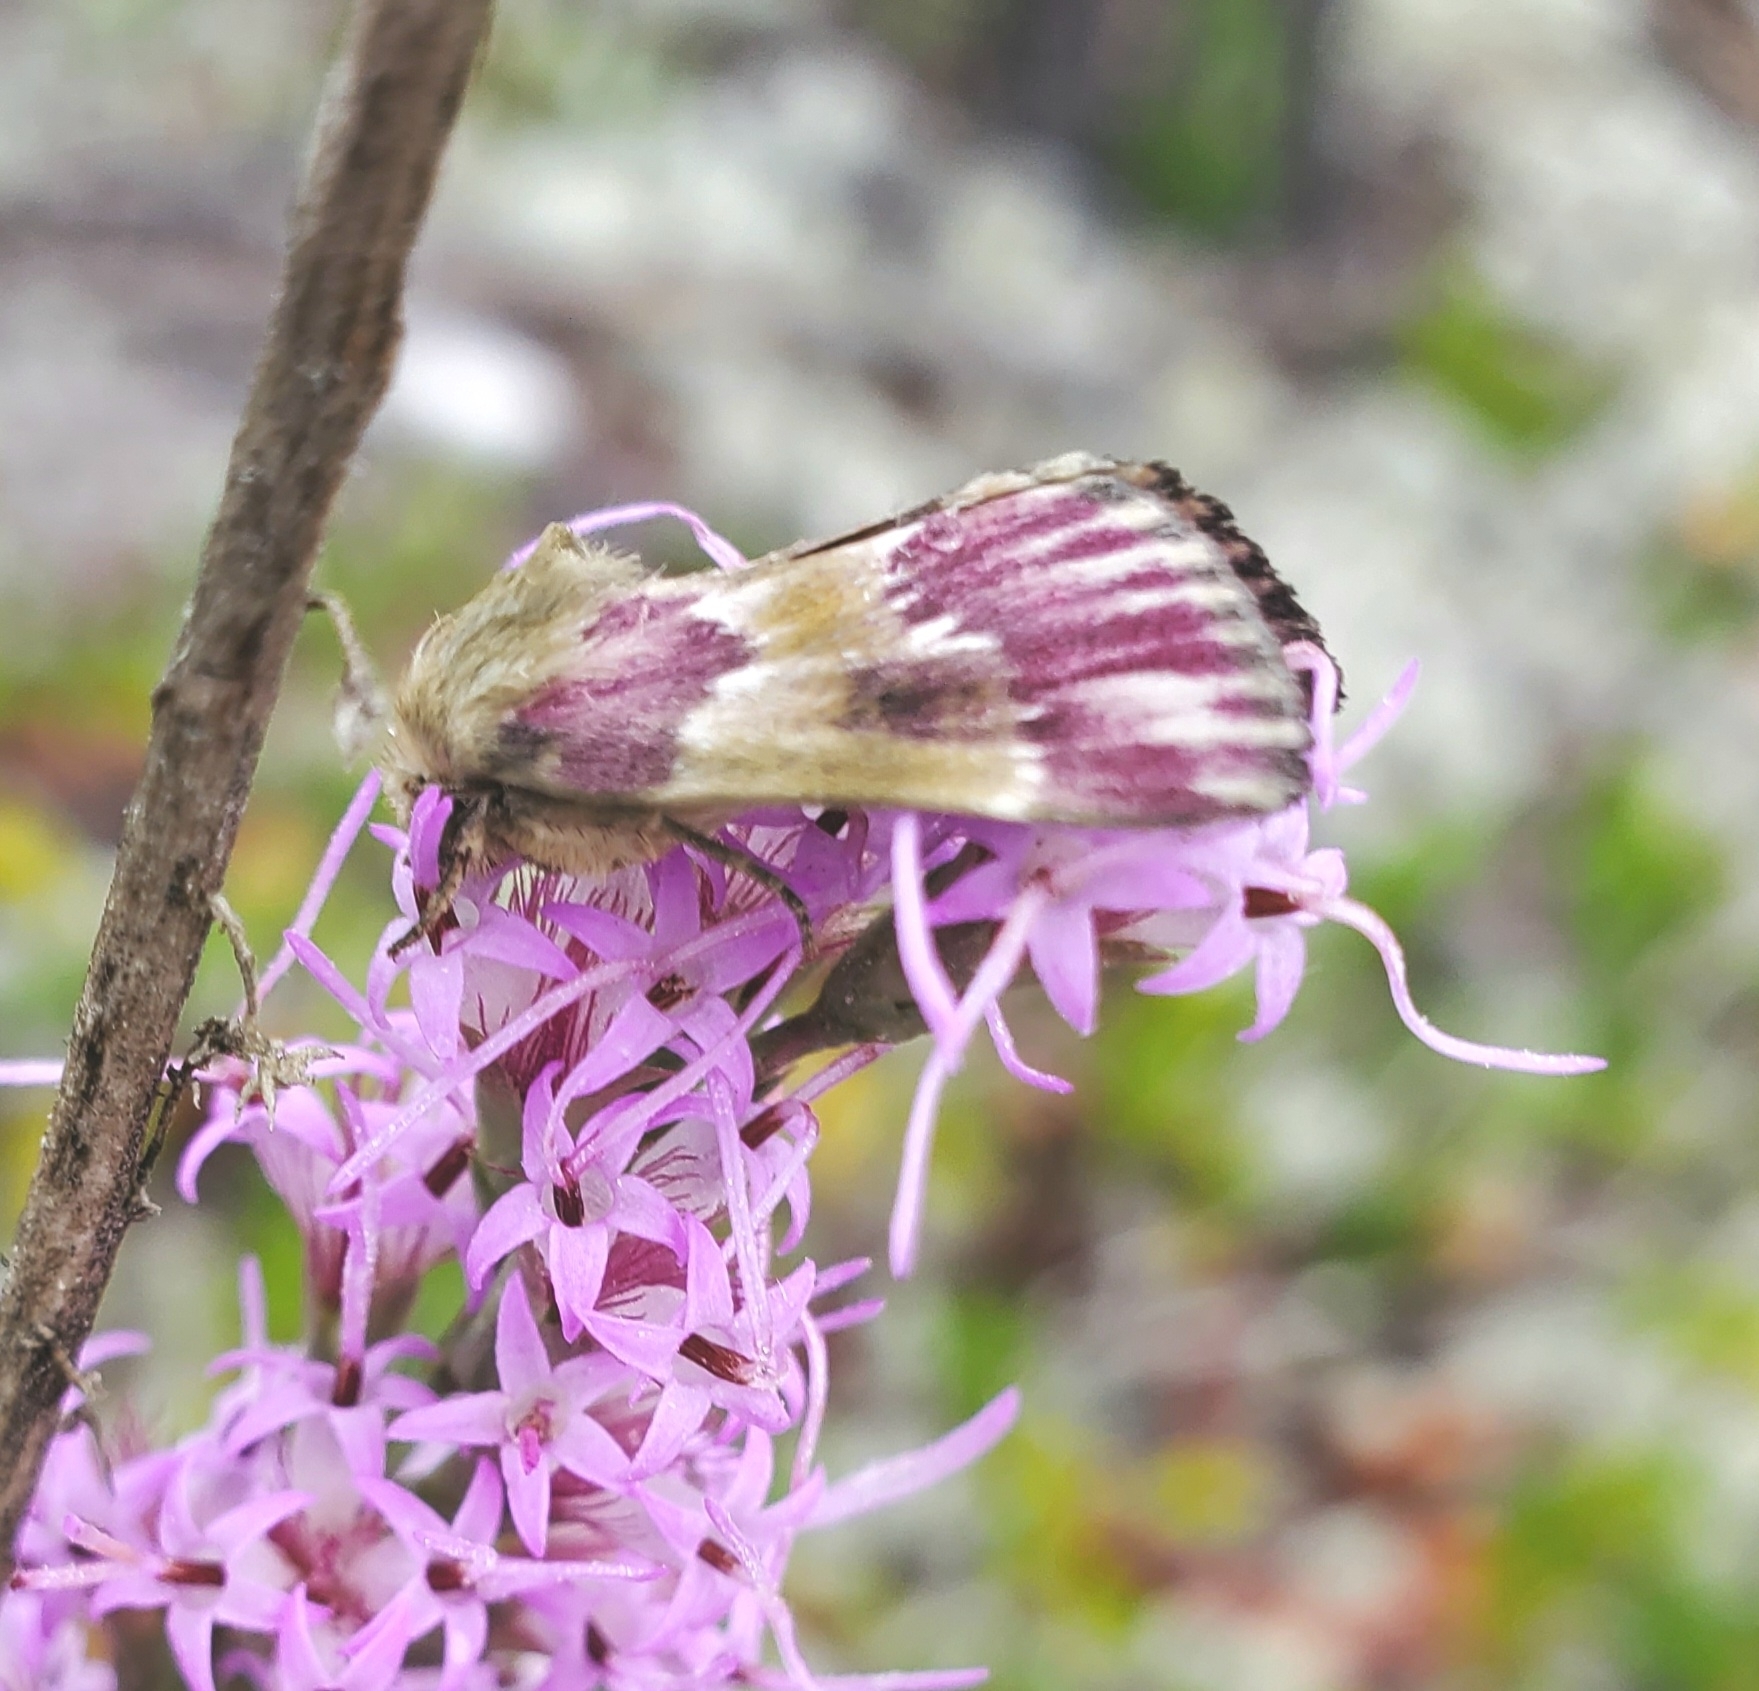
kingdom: Animalia
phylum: Arthropoda
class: Insecta
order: Lepidoptera
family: Noctuidae
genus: Schinia
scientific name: Schinia sanguinea
